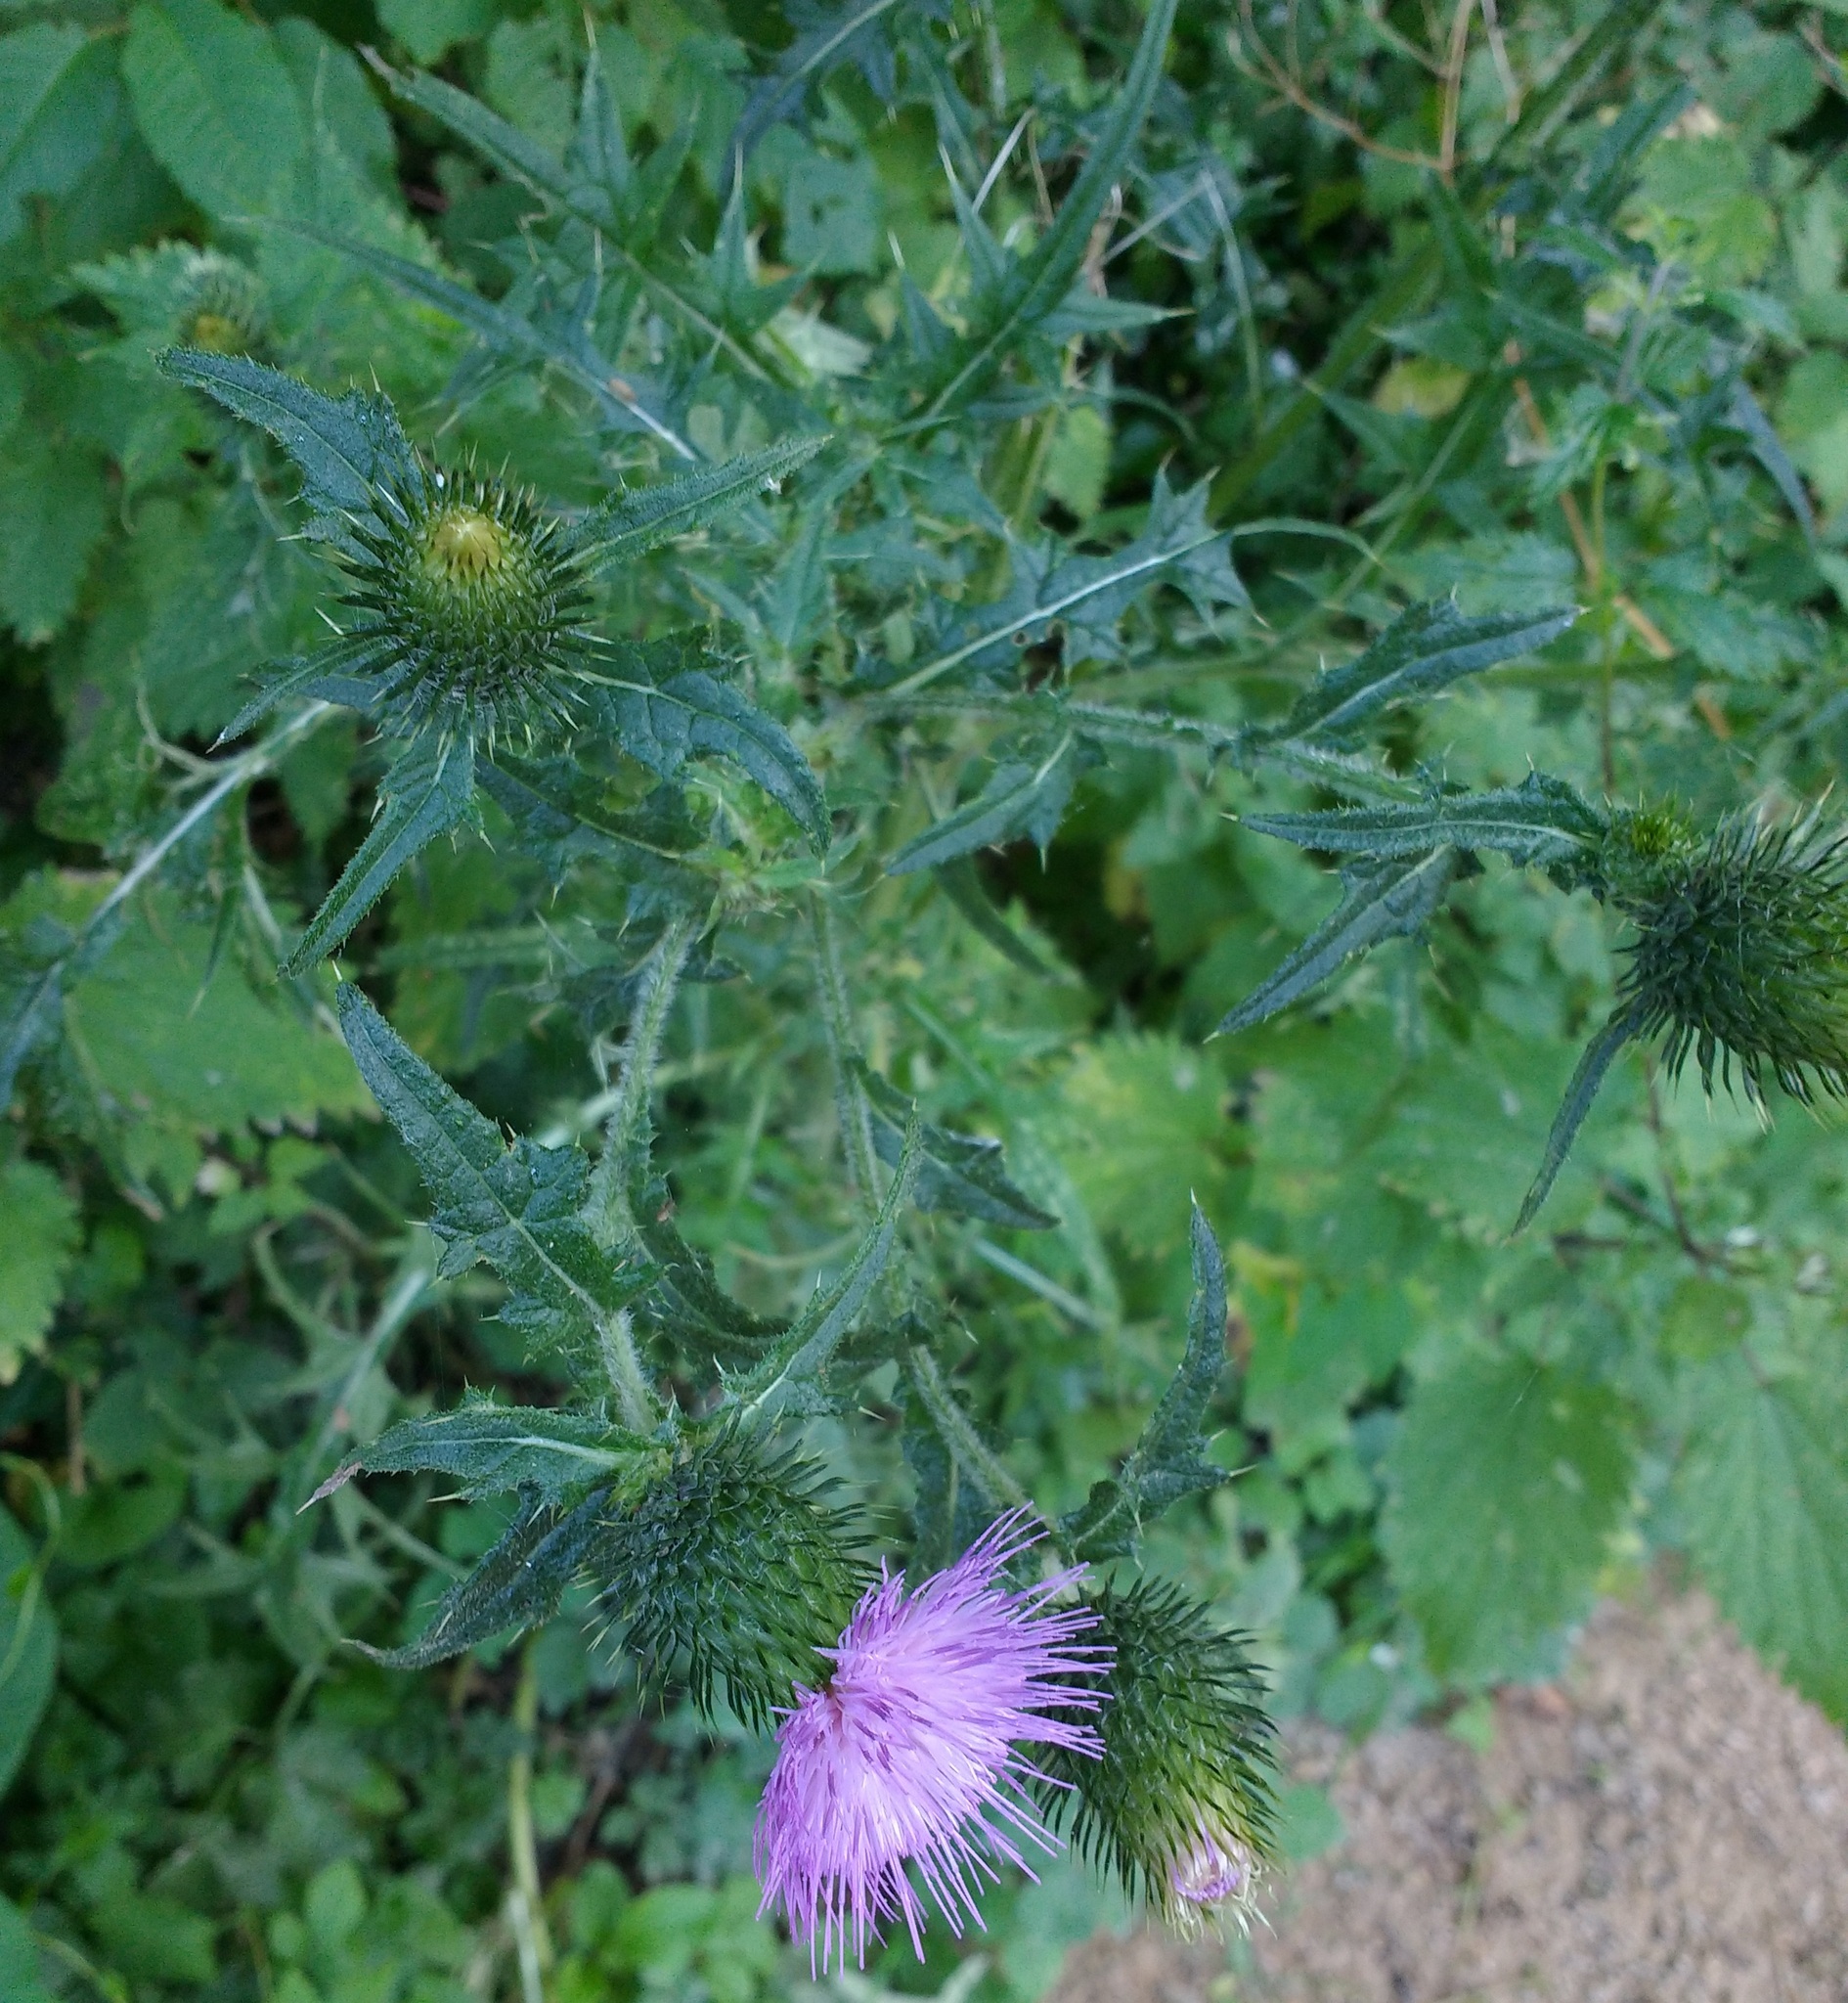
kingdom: Plantae
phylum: Tracheophyta
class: Magnoliopsida
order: Asterales
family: Asteraceae
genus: Cirsium
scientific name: Cirsium vulgare
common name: Bull thistle
